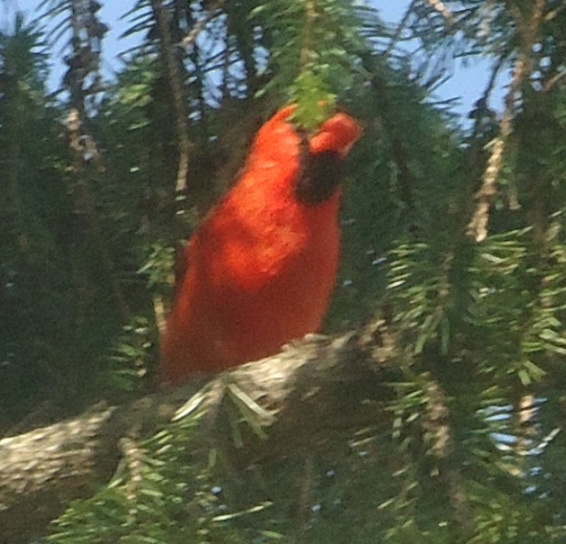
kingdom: Animalia
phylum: Chordata
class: Aves
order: Passeriformes
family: Cardinalidae
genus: Cardinalis
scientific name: Cardinalis cardinalis
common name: Northern cardinal
